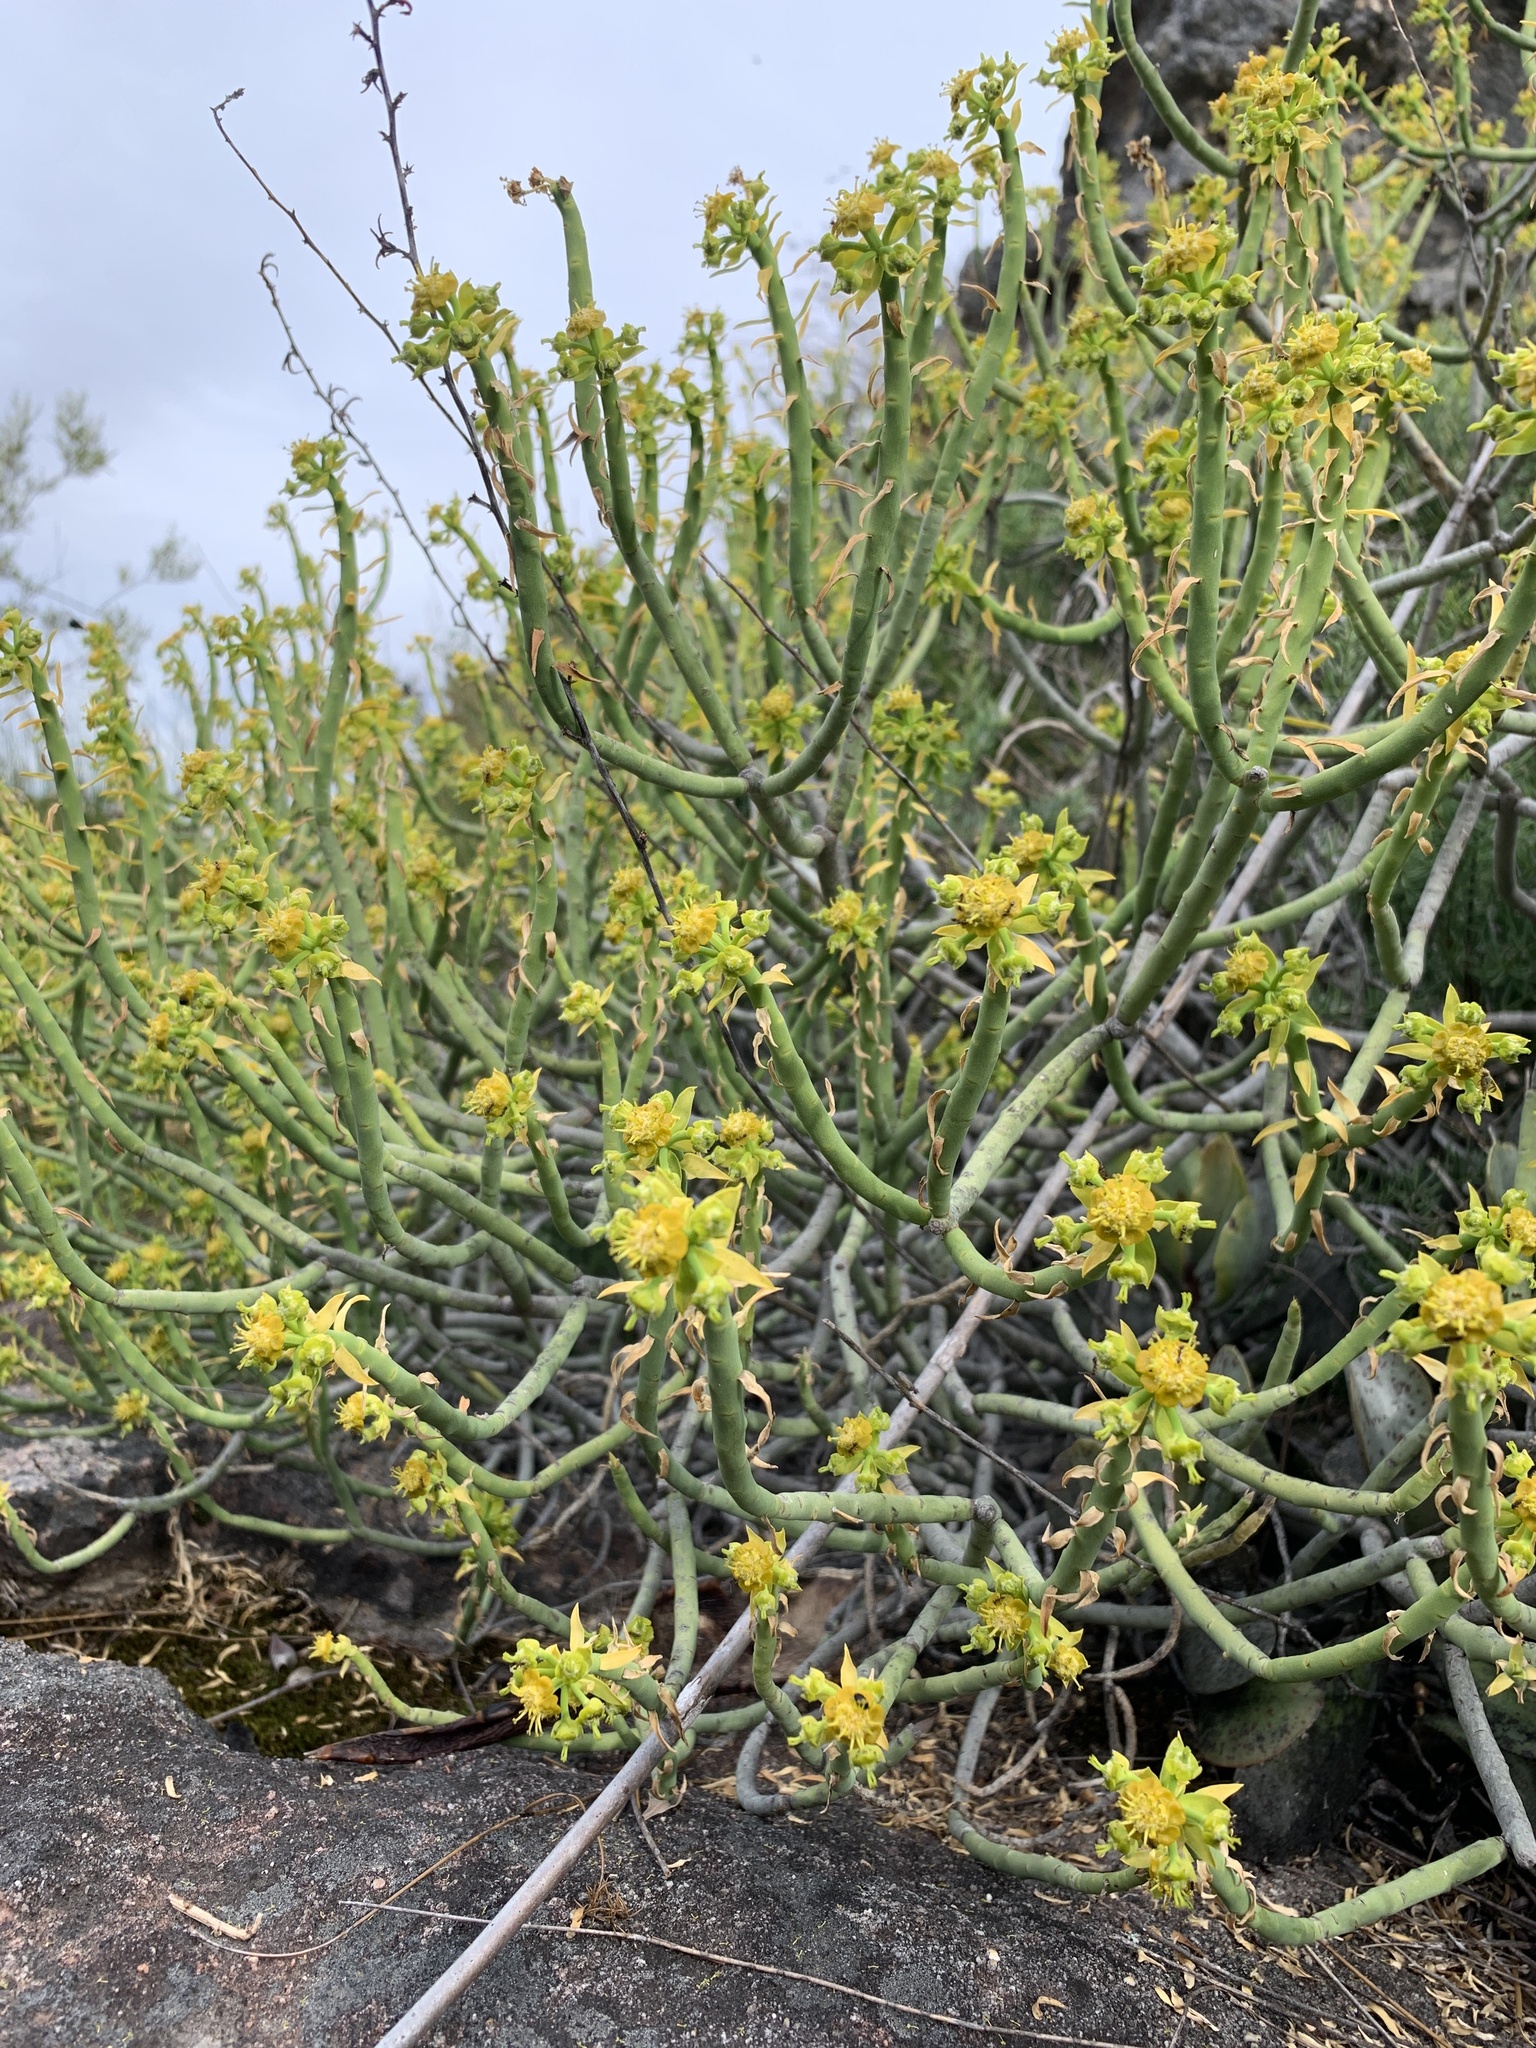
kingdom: Plantae
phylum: Tracheophyta
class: Magnoliopsida
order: Malpighiales
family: Euphorbiaceae
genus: Euphorbia
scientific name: Euphorbia mauritanica
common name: Jackal's-food
